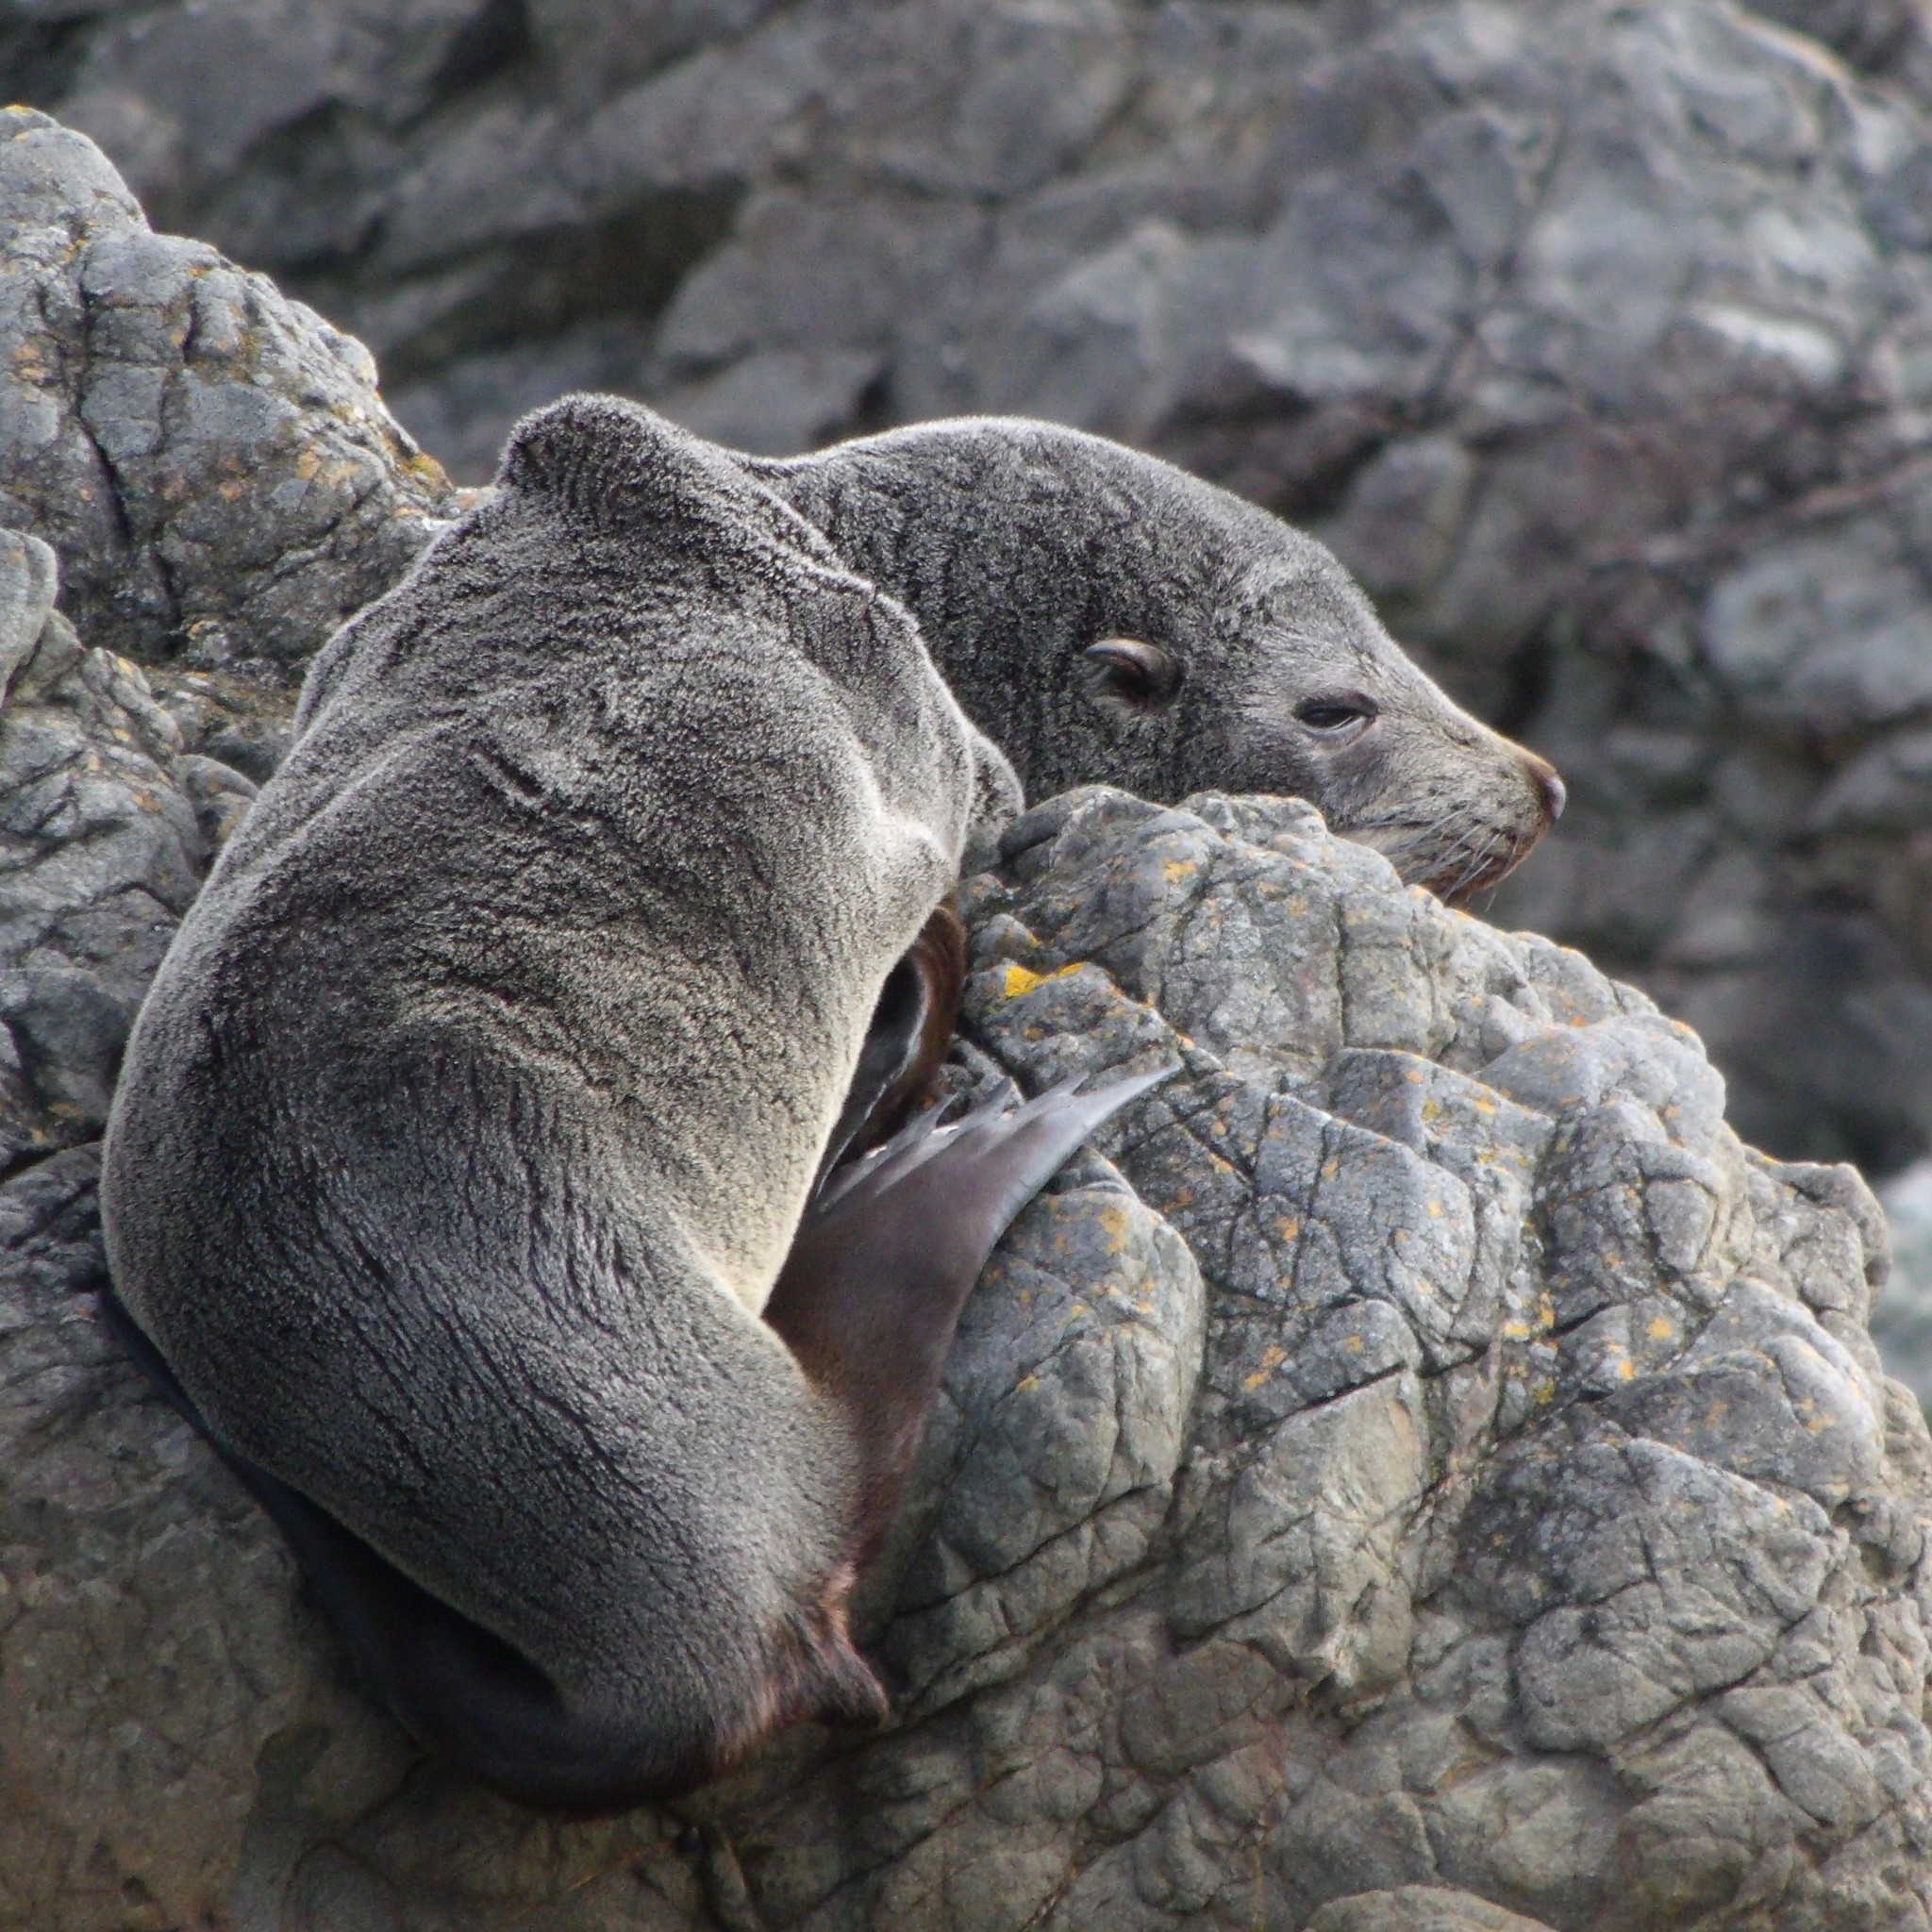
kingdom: Animalia
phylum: Chordata
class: Mammalia
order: Carnivora
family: Otariidae
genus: Arctocephalus
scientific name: Arctocephalus forsteri
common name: New zealand fur seal
